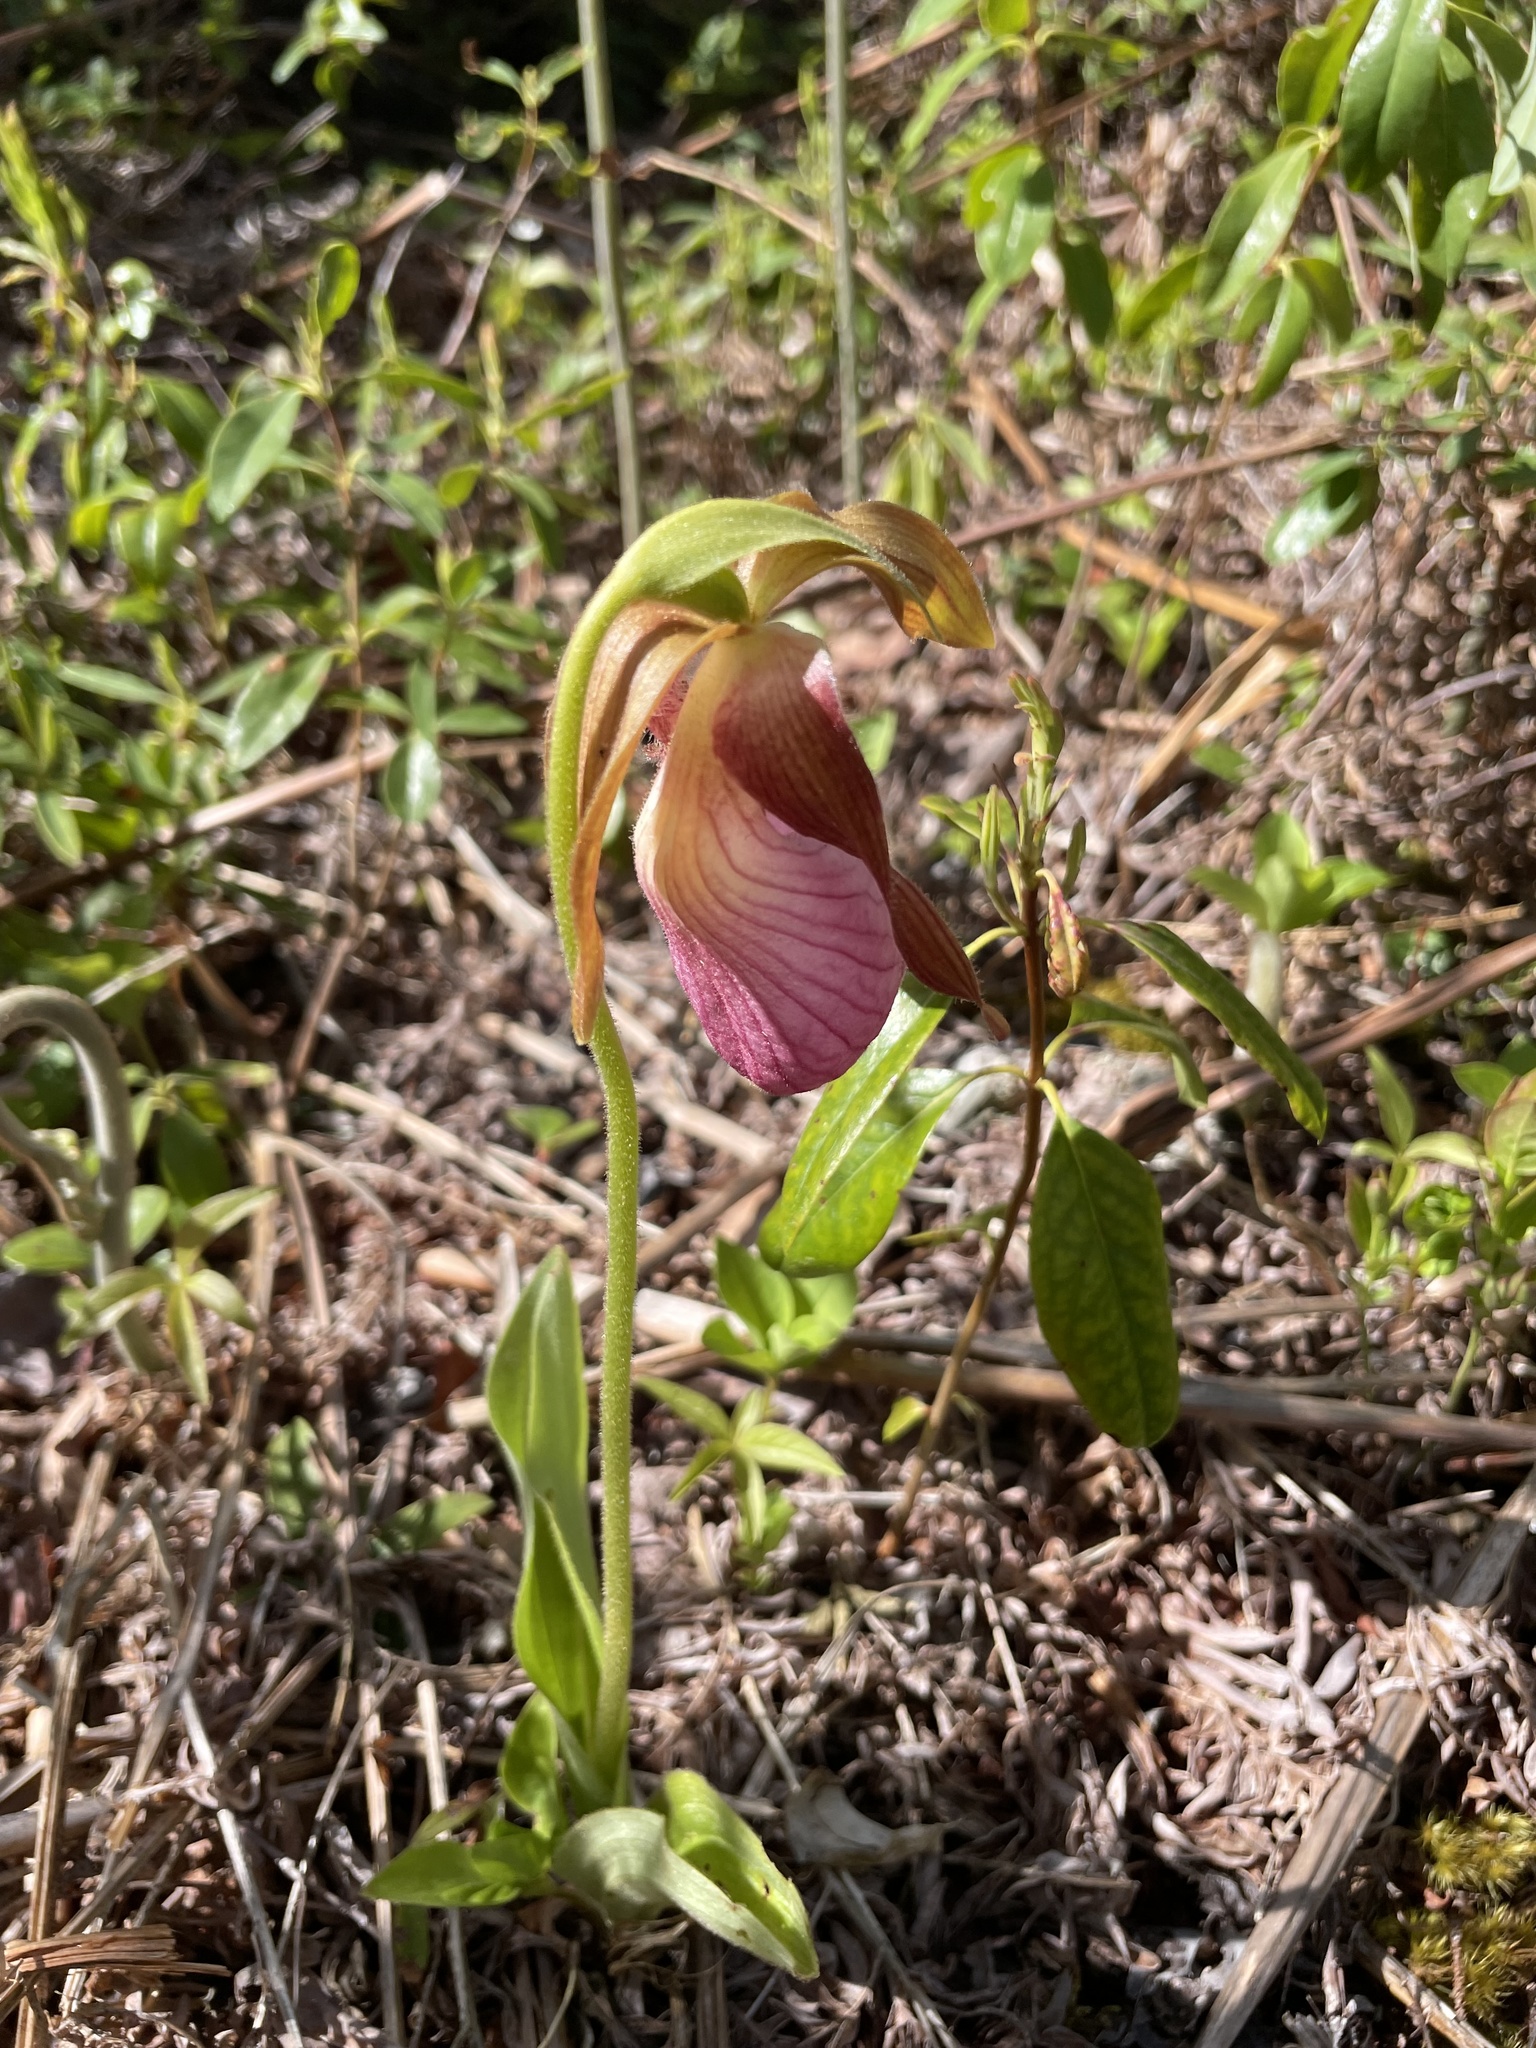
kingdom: Plantae
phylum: Tracheophyta
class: Liliopsida
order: Asparagales
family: Orchidaceae
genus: Cypripedium
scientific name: Cypripedium acaule
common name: Pink lady's-slipper
